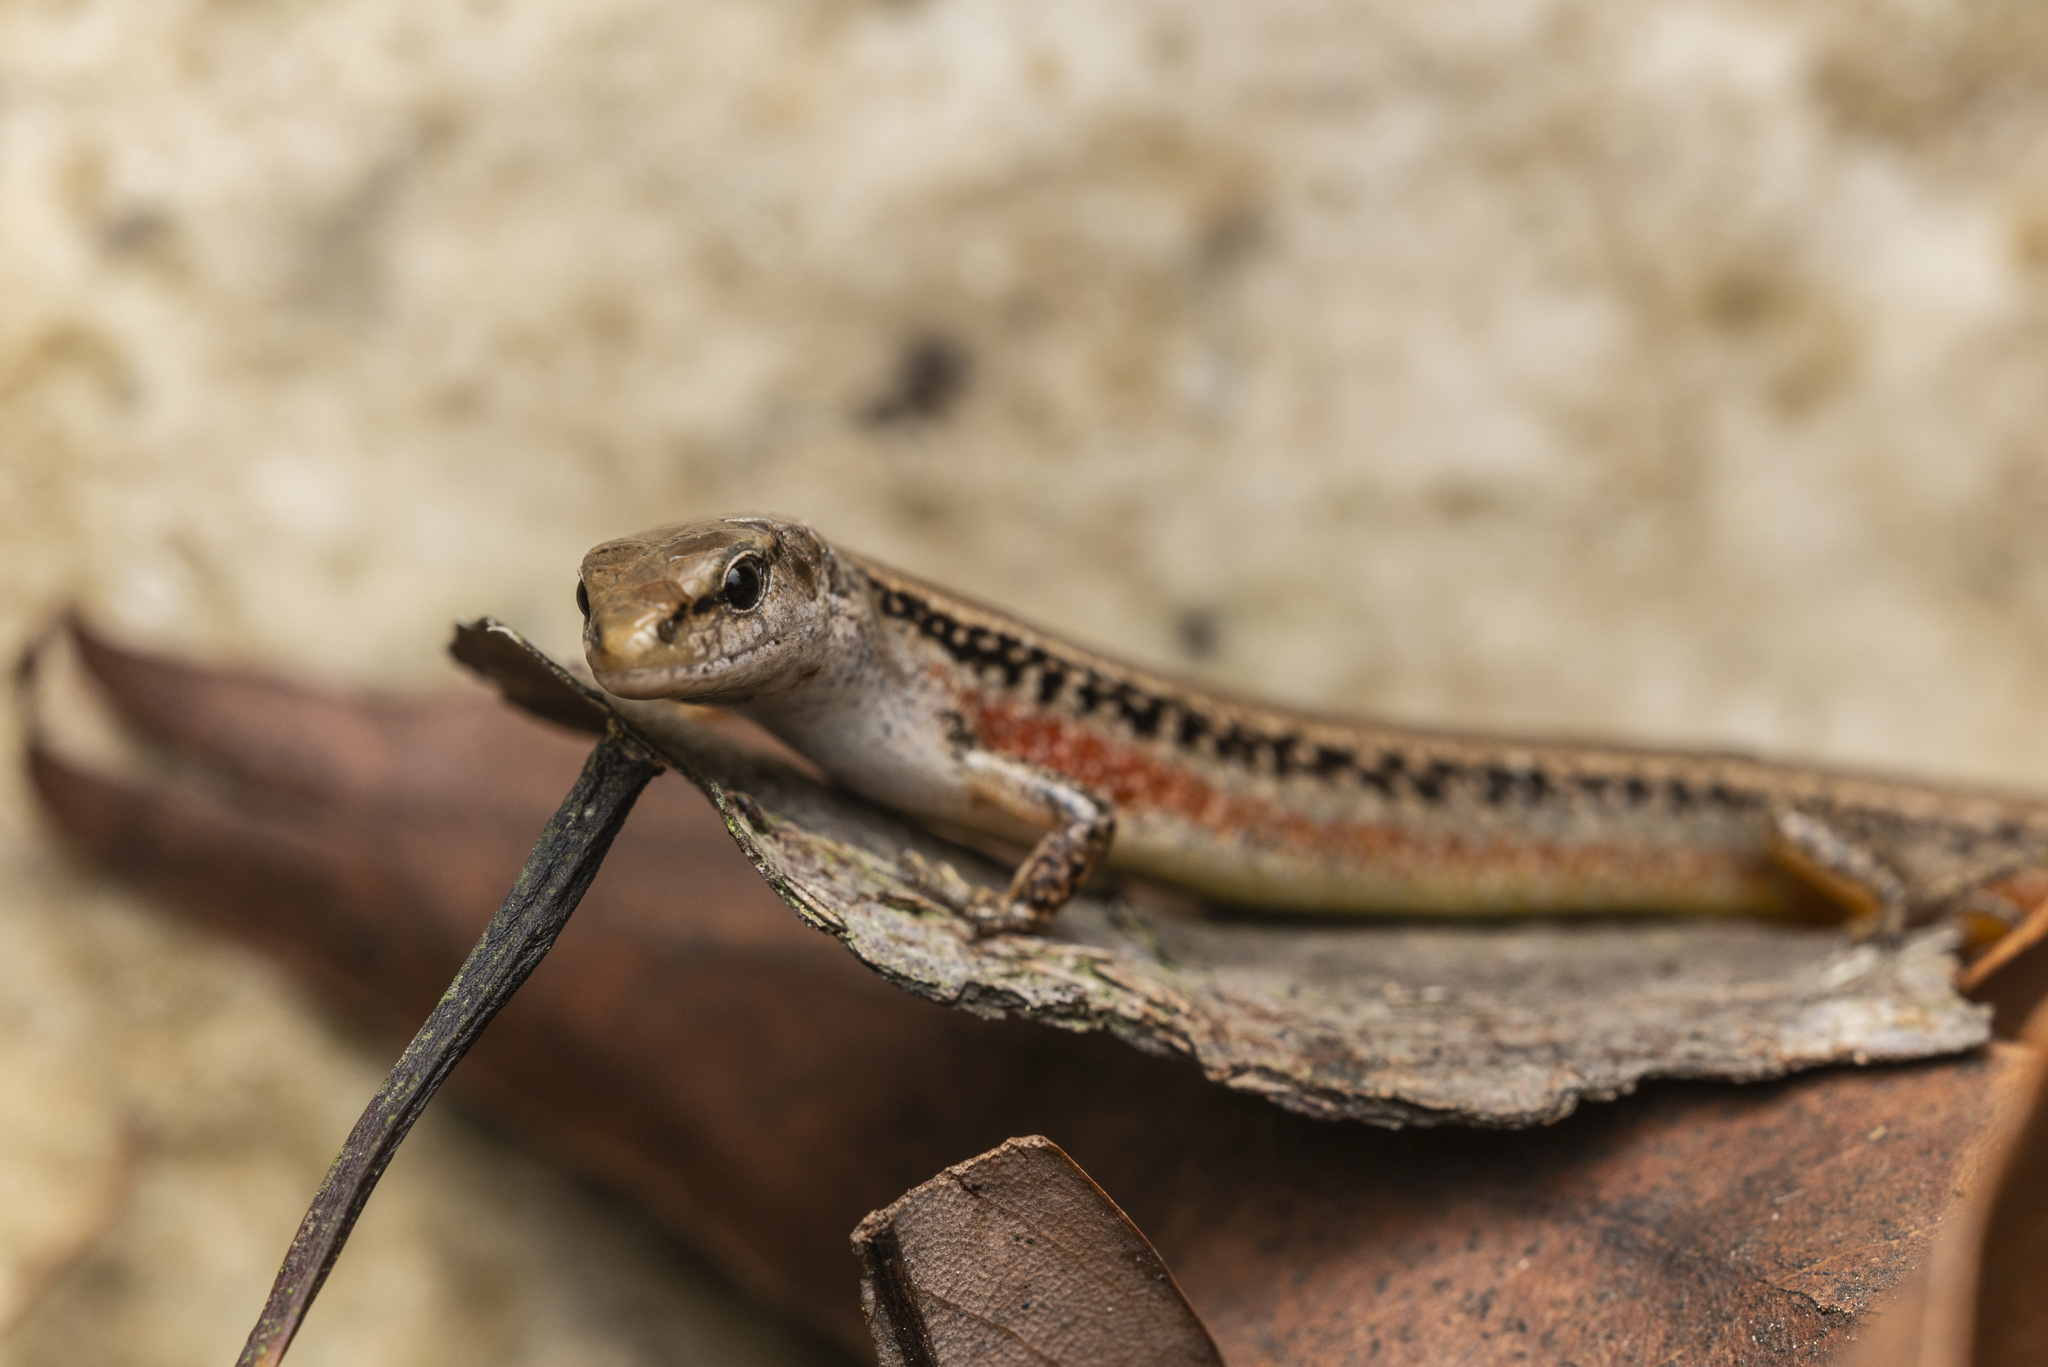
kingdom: Animalia
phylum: Chordata
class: Squamata
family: Scincidae
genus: Scincella
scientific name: Scincella reevesii
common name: Reeves’ smooth gecko
